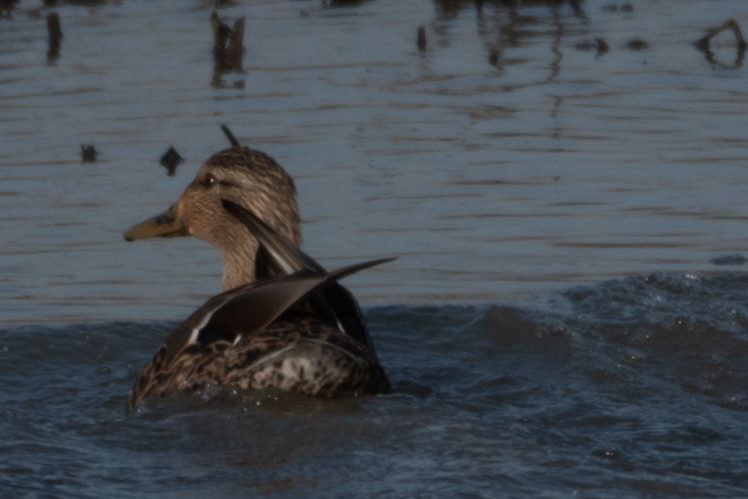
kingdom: Animalia
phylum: Chordata
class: Aves
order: Anseriformes
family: Anatidae
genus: Anas
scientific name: Anas platyrhynchos
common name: Mallard
